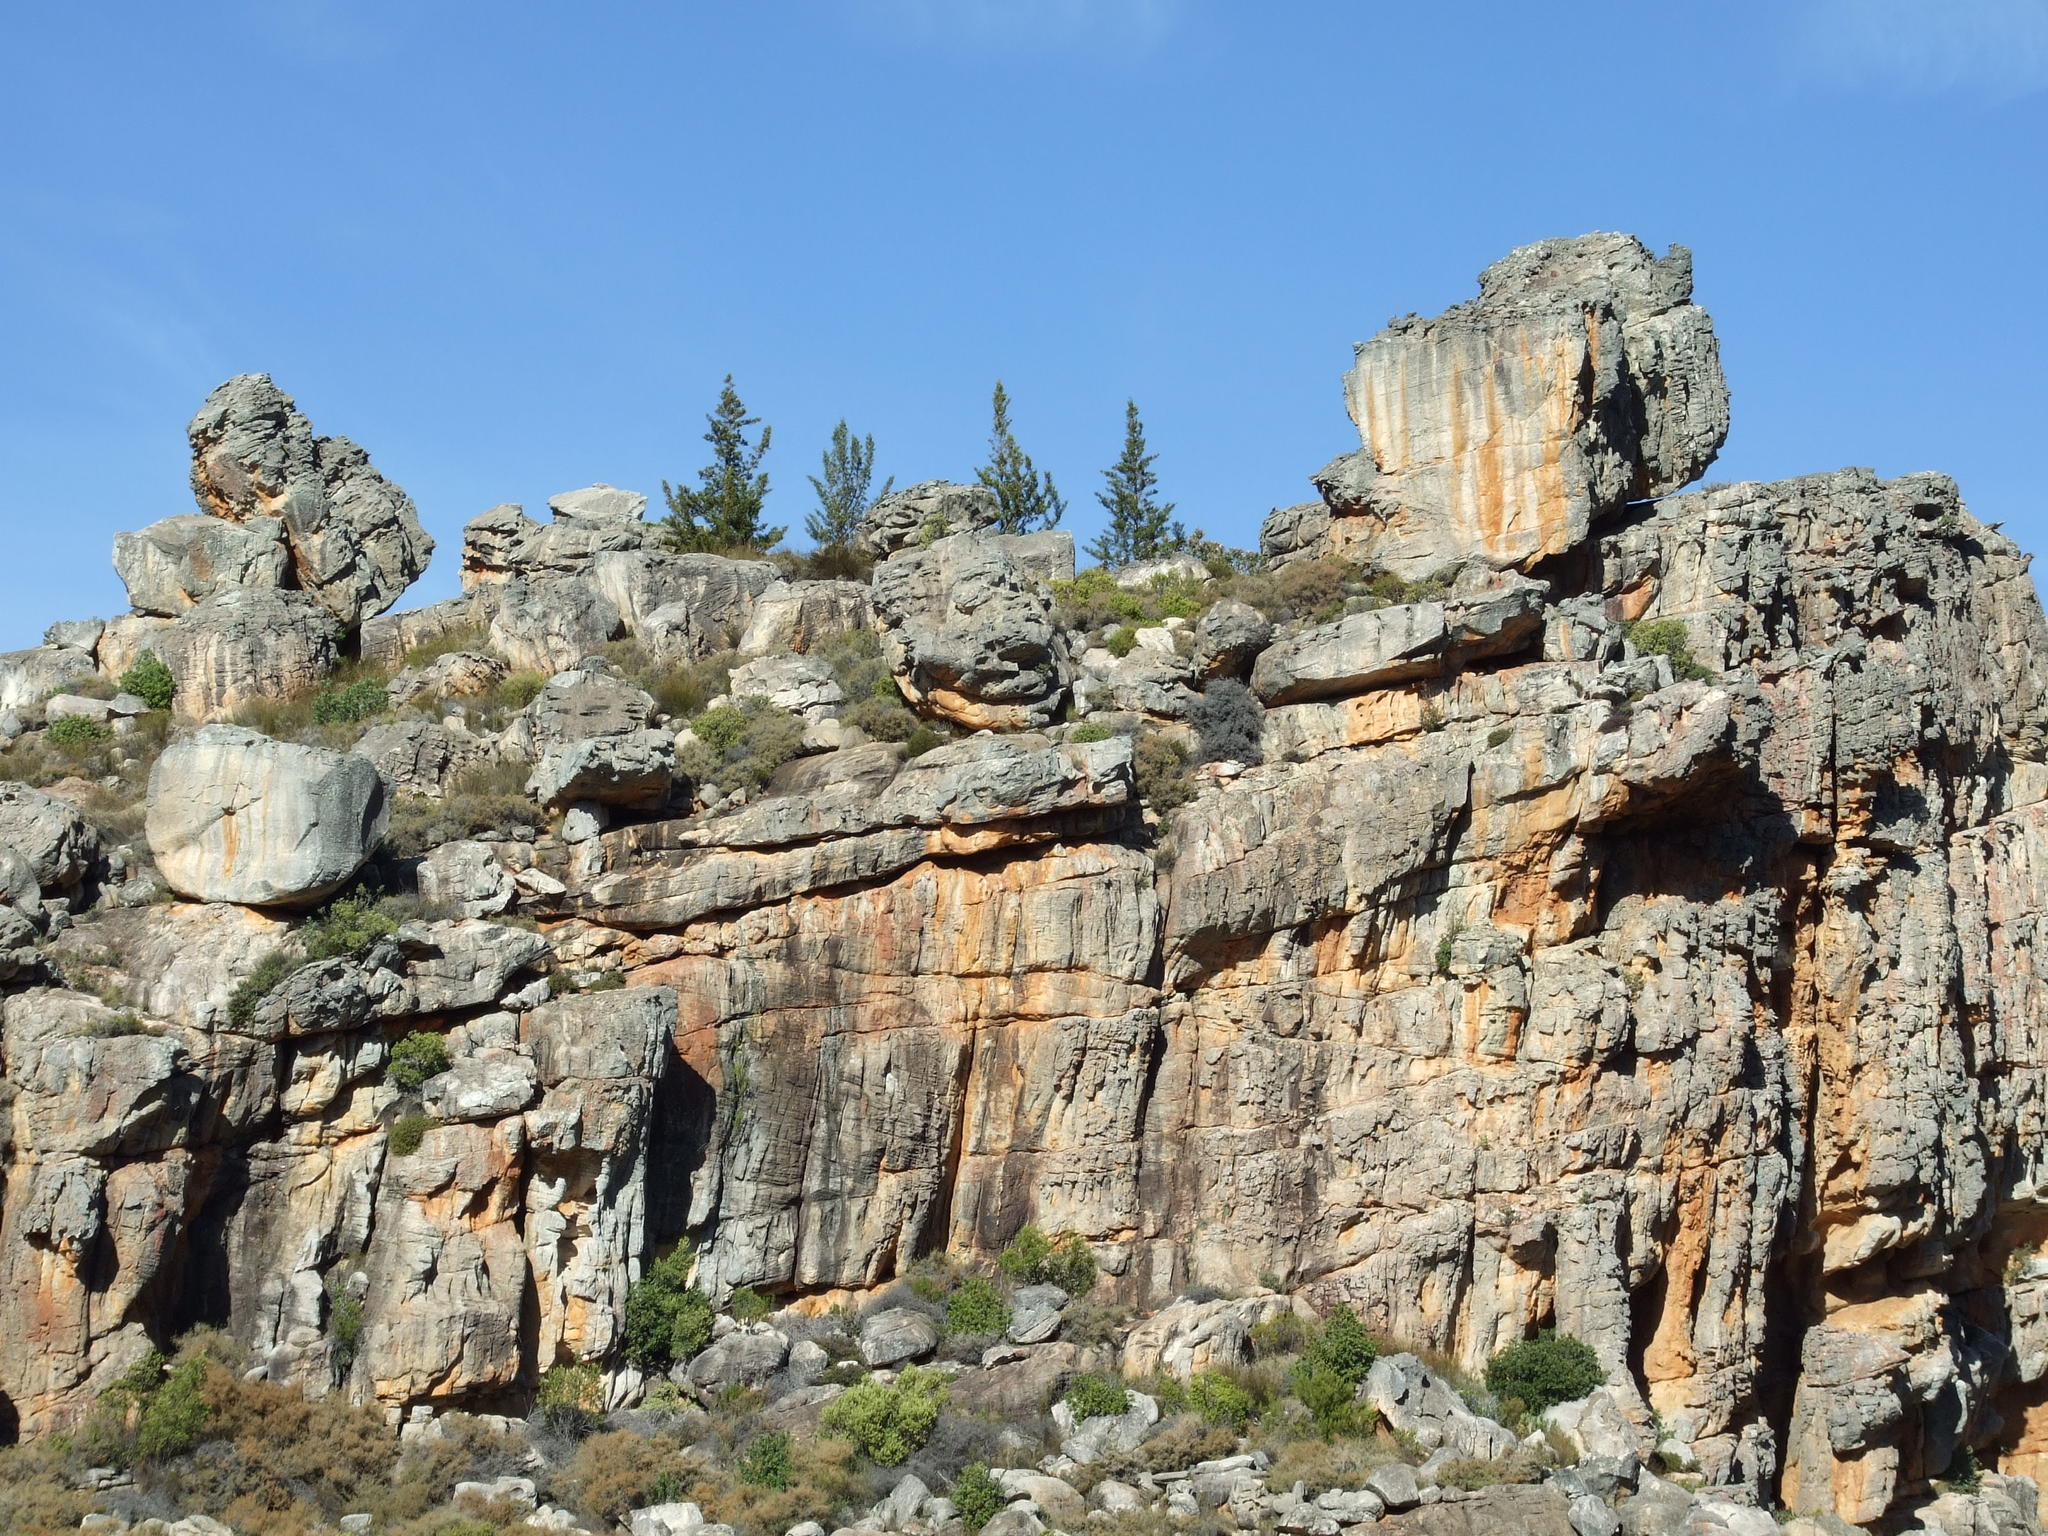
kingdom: Plantae
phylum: Tracheophyta
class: Pinopsida
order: Pinales
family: Cupressaceae
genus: Widdringtonia
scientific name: Widdringtonia nodiflora
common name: Cape cypress
